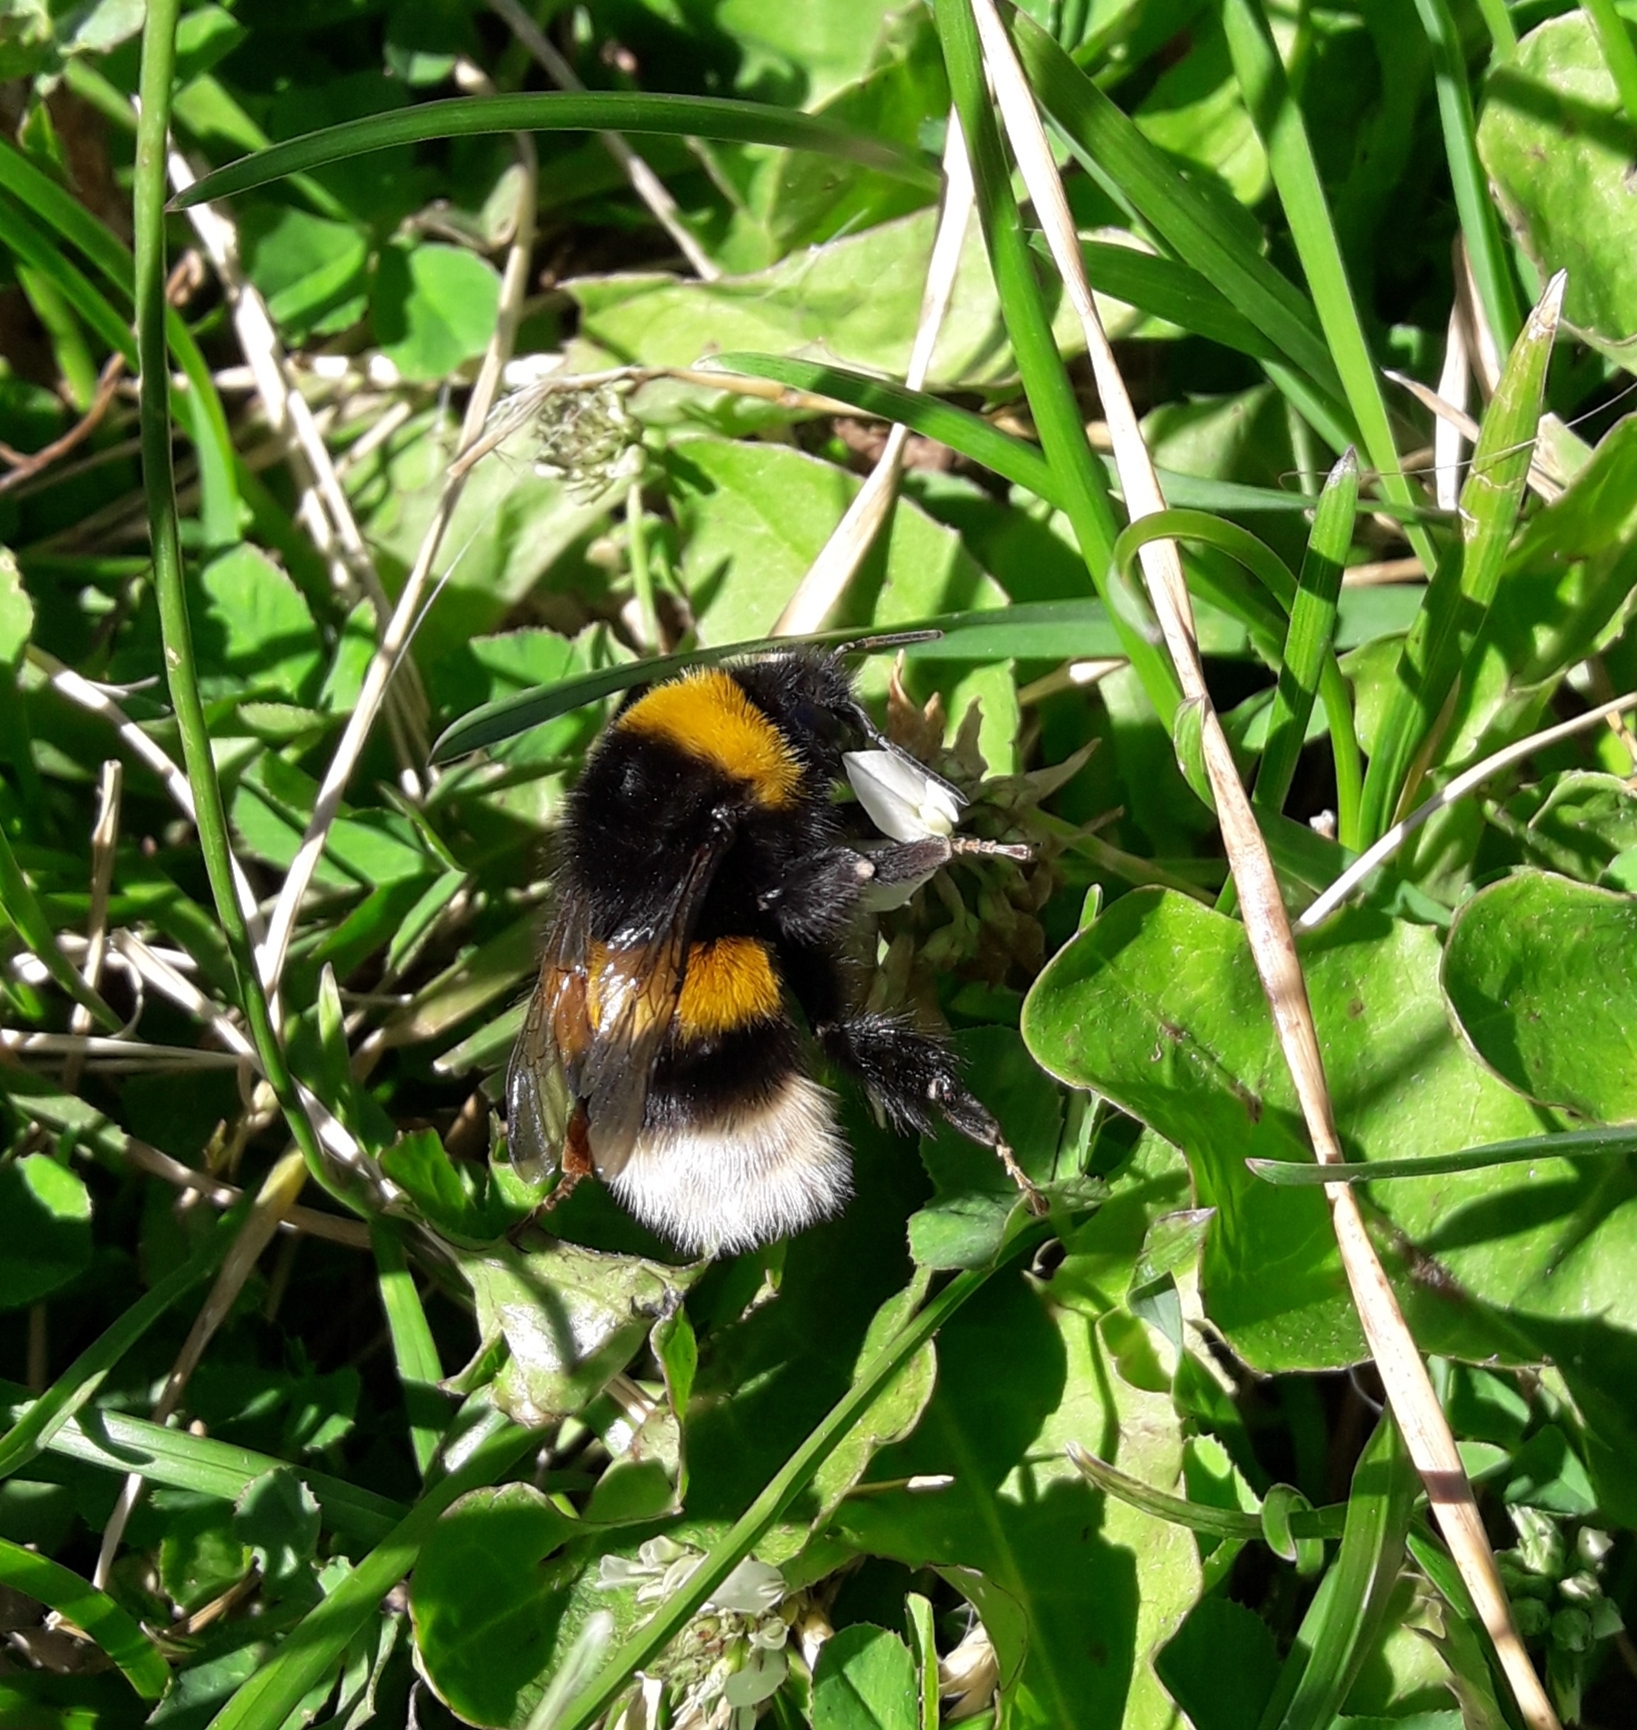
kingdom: Animalia
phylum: Arthropoda
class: Insecta
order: Hymenoptera
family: Apidae
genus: Bombus
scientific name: Bombus terrestris
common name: Buff-tailed bumblebee
